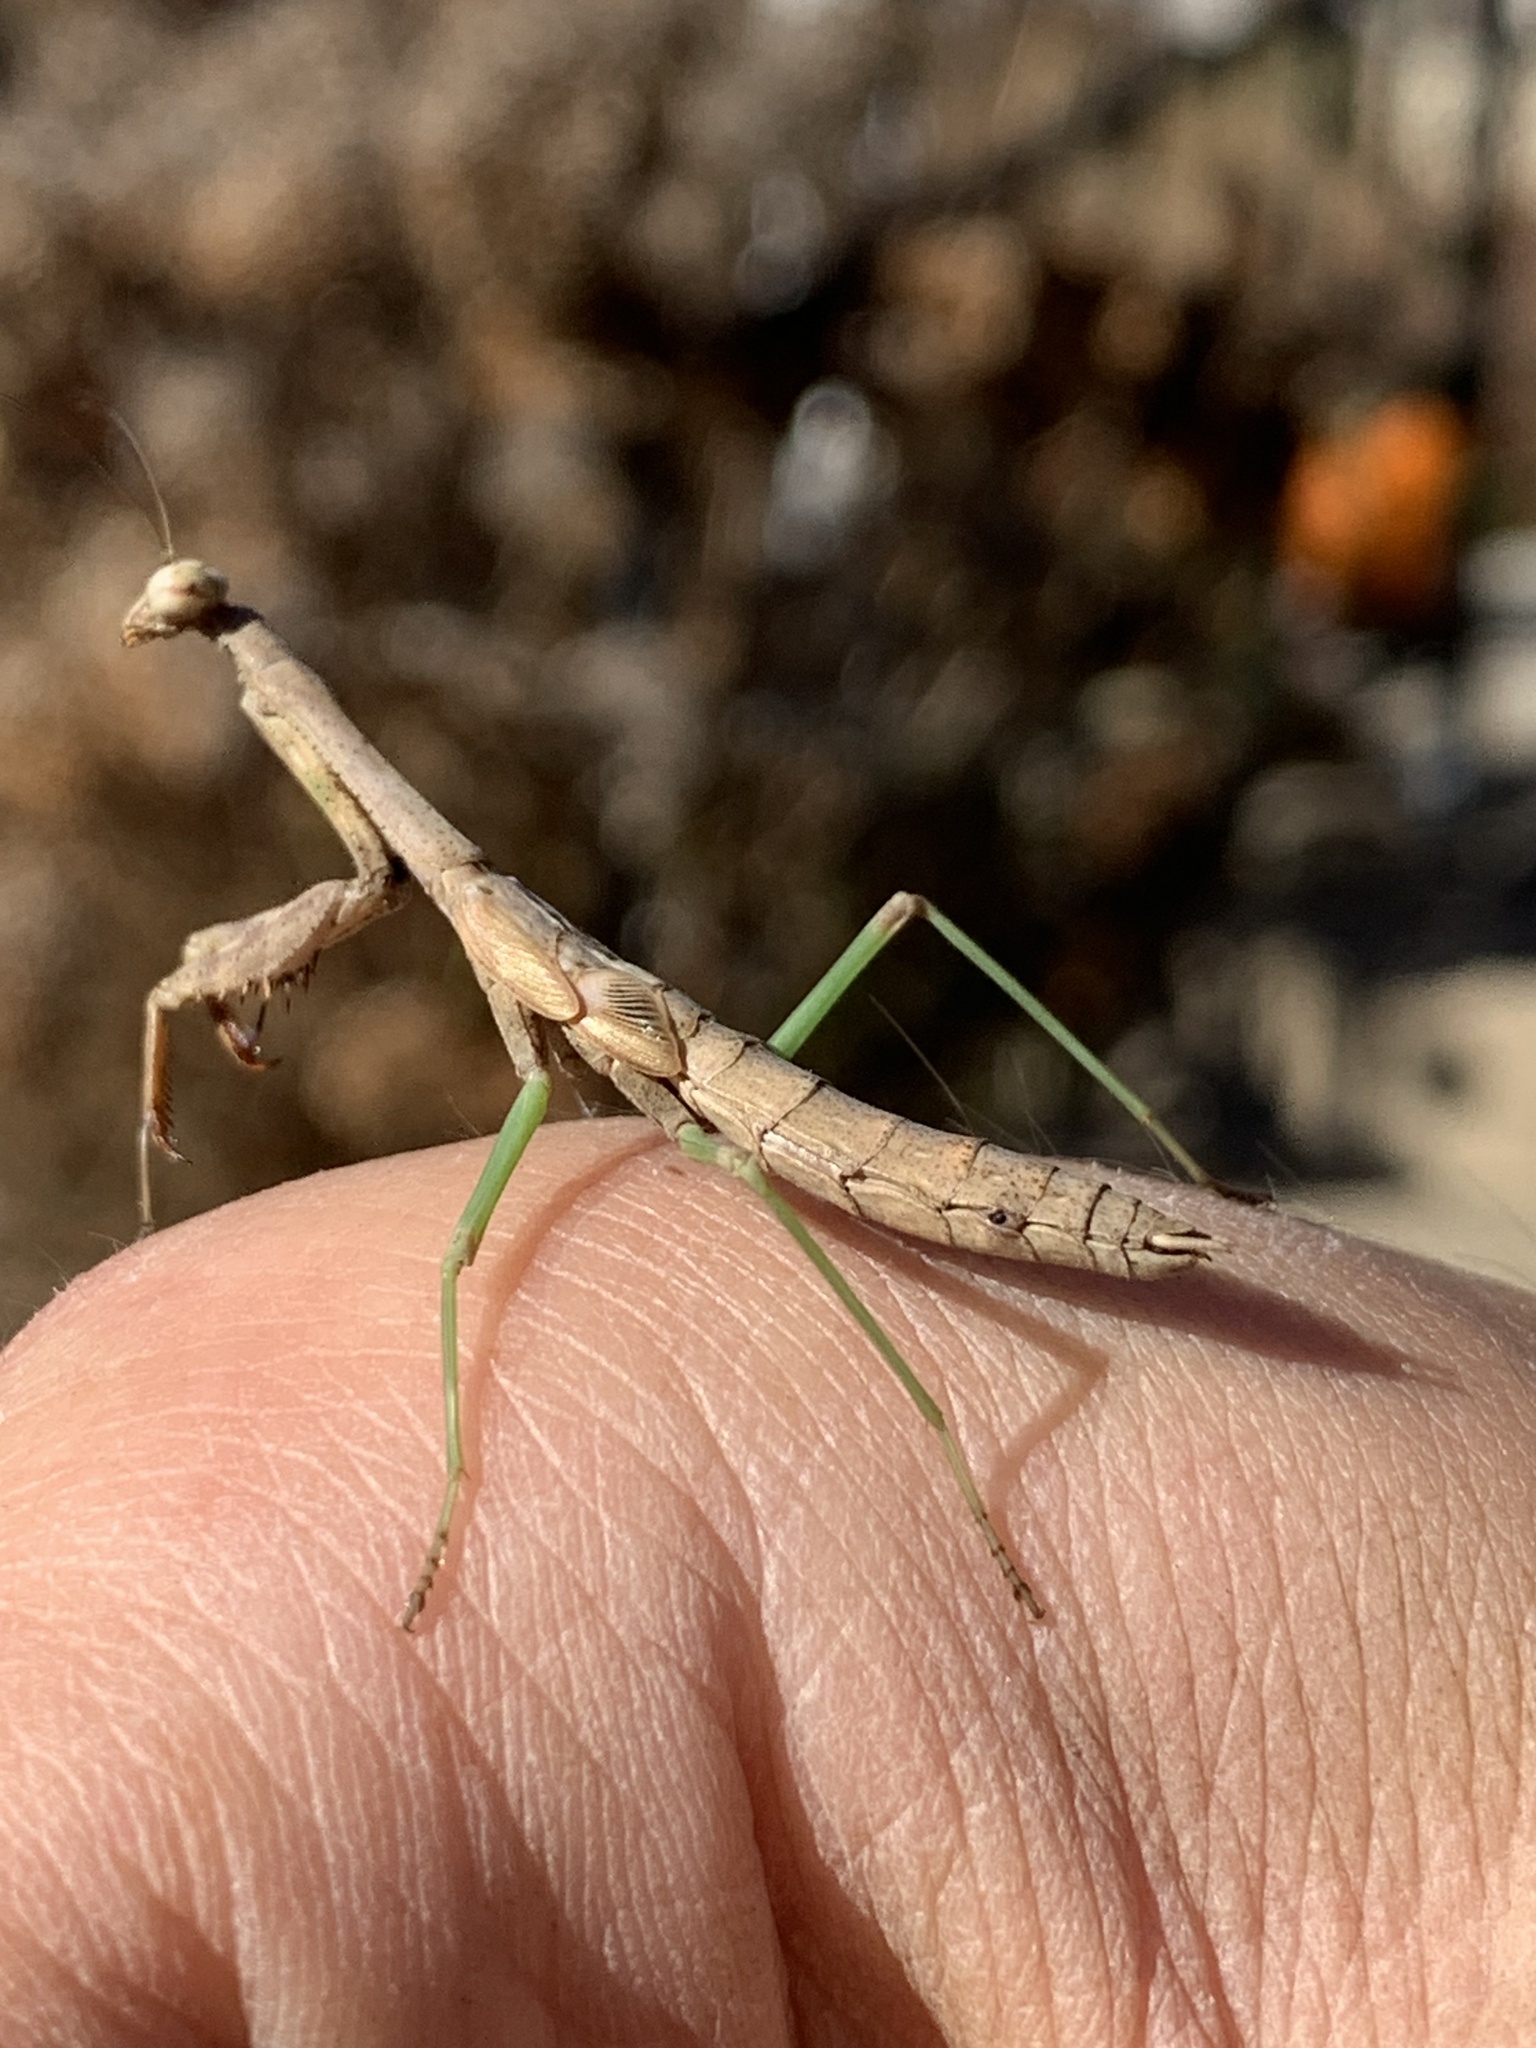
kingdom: Animalia
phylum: Arthropoda
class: Insecta
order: Mantodea
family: Mantidae
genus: Stagmomantis
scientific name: Stagmomantis carolina
